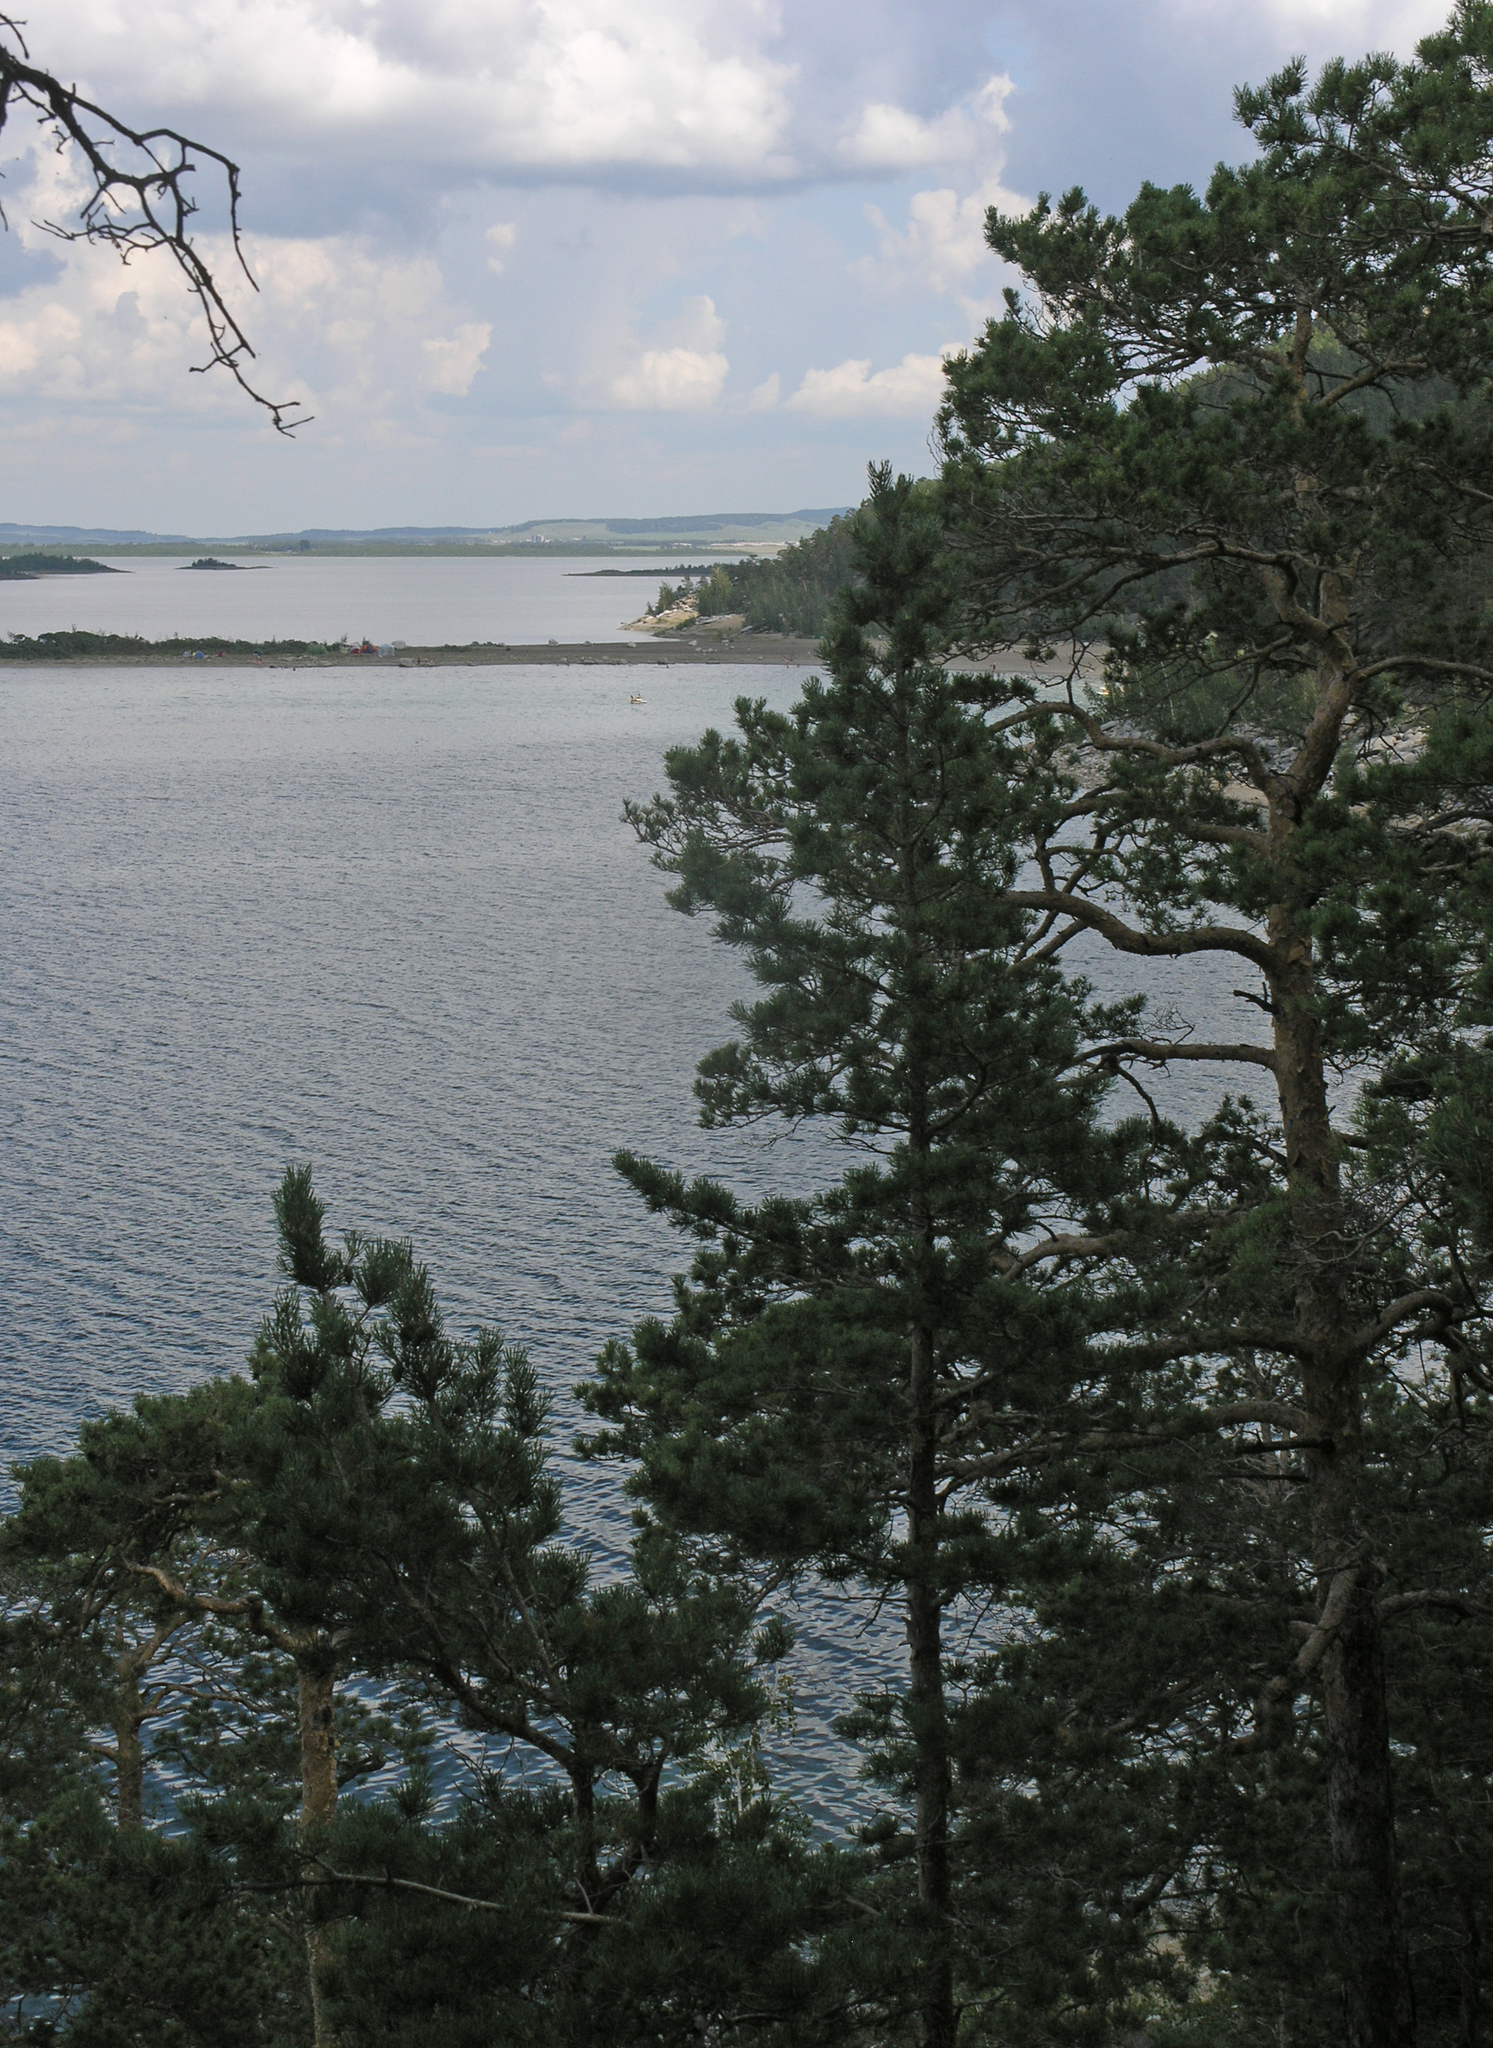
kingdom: Plantae
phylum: Tracheophyta
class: Pinopsida
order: Pinales
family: Pinaceae
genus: Pinus
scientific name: Pinus sylvestris
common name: Scots pine
